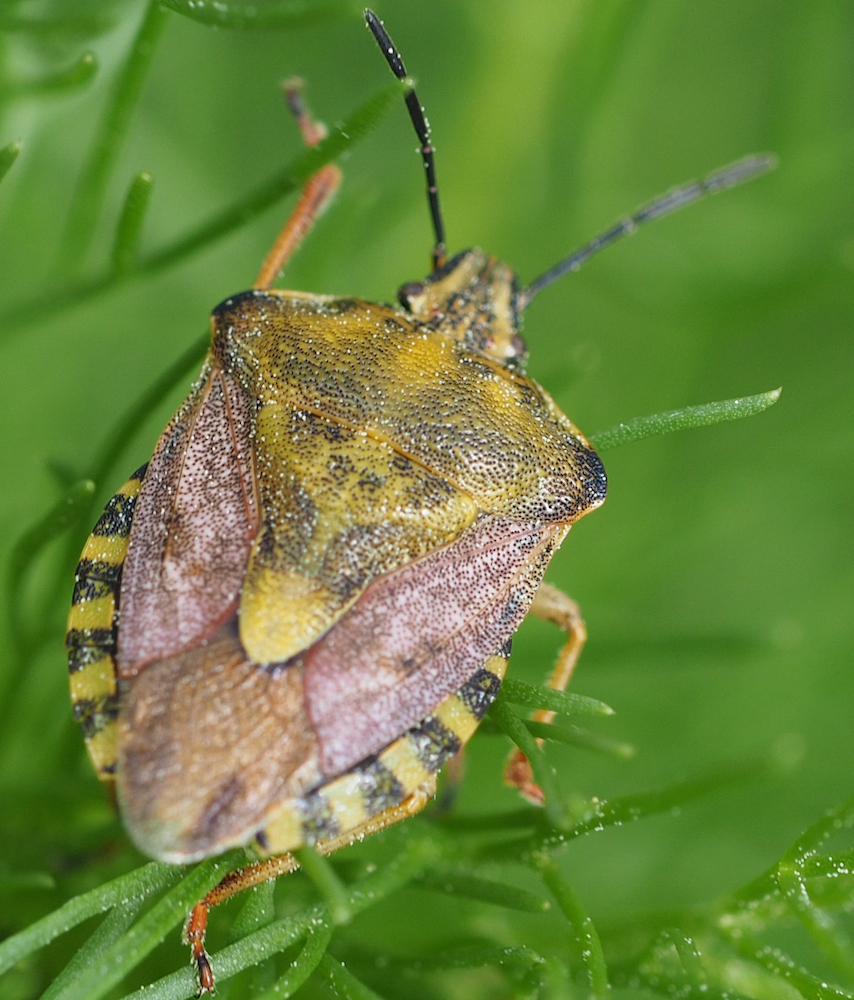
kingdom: Animalia
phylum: Arthropoda
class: Insecta
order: Hemiptera
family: Pentatomidae
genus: Carpocoris
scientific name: Carpocoris purpureipennis
